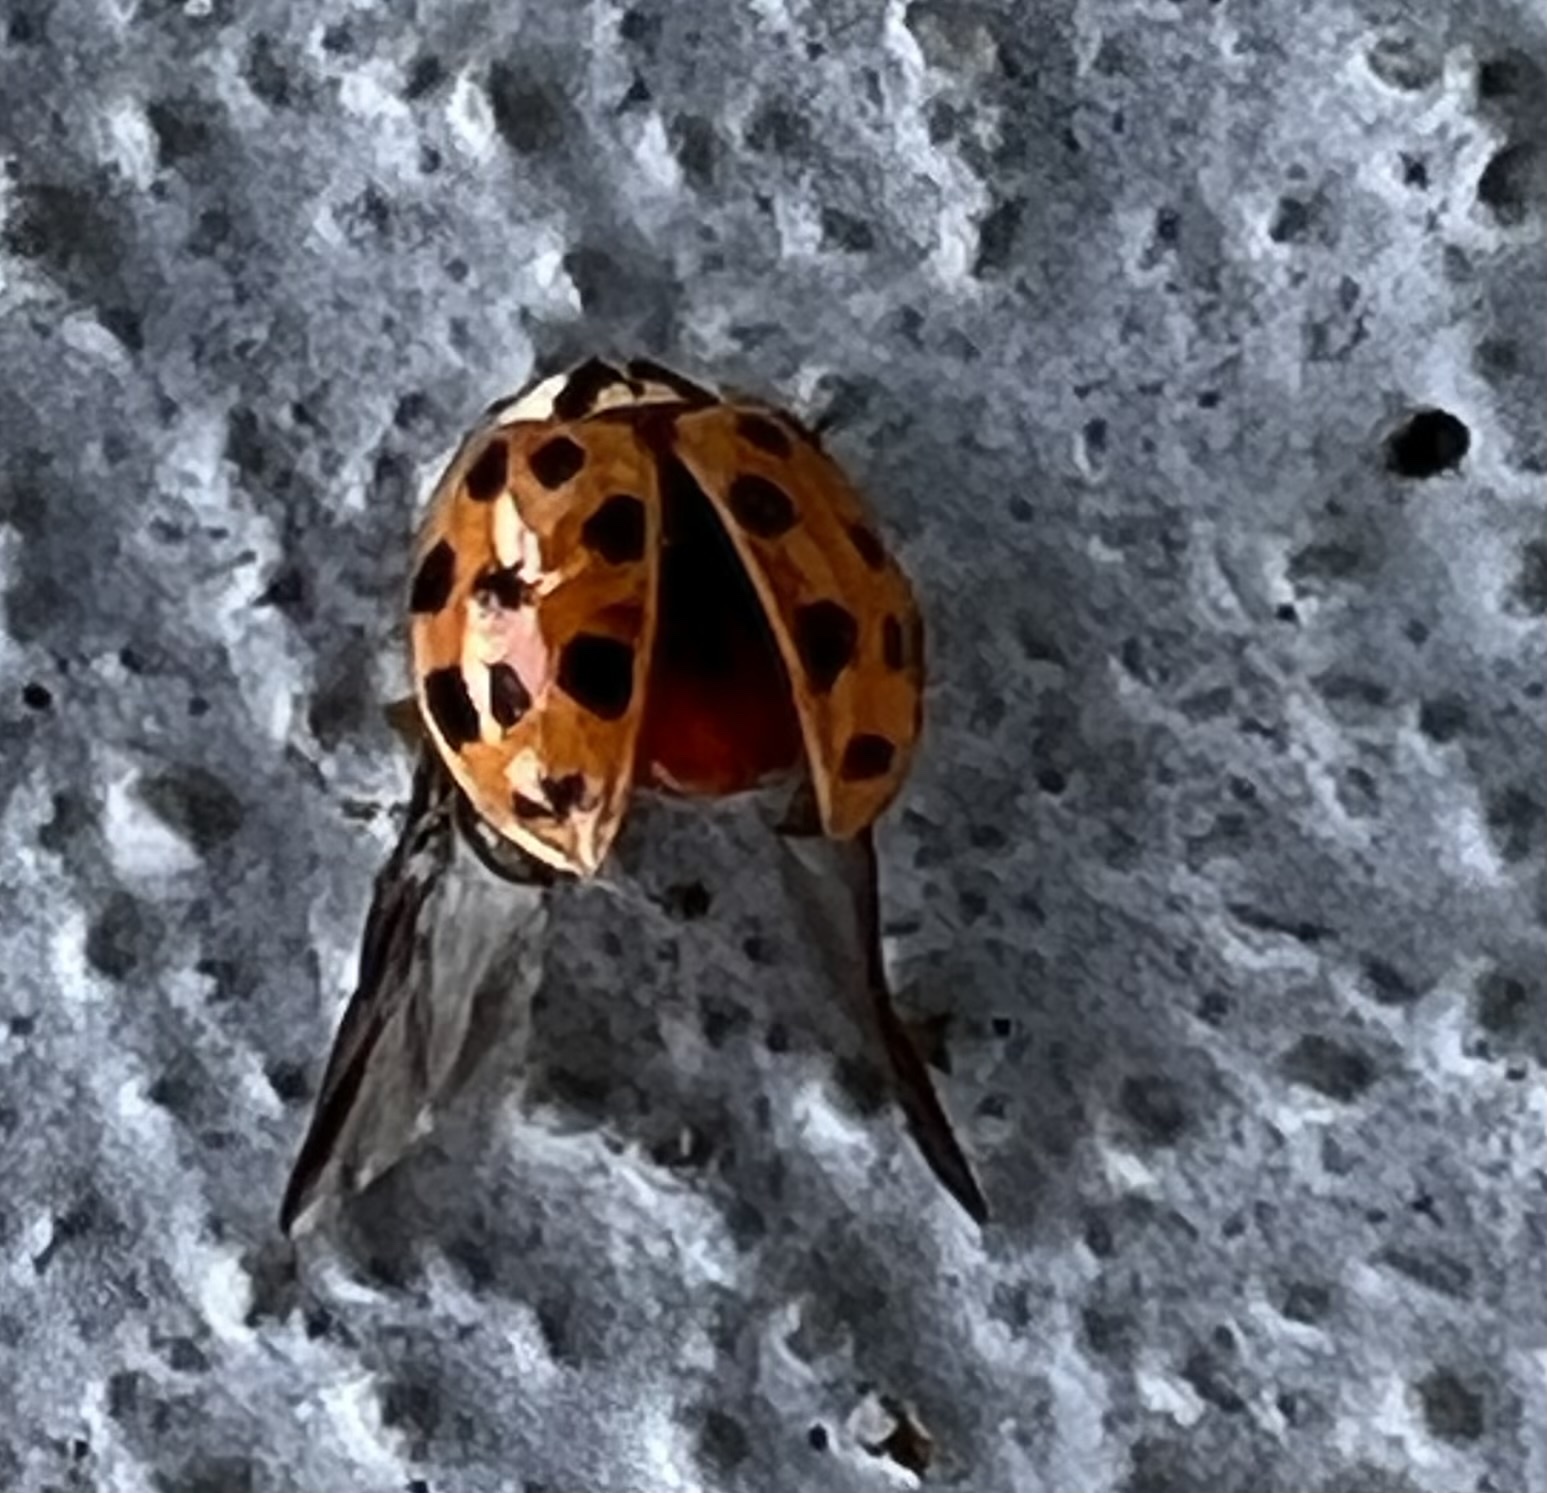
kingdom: Animalia
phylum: Arthropoda
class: Insecta
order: Coleoptera
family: Coccinellidae
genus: Harmonia
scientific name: Harmonia axyridis
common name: Harlequin ladybird
